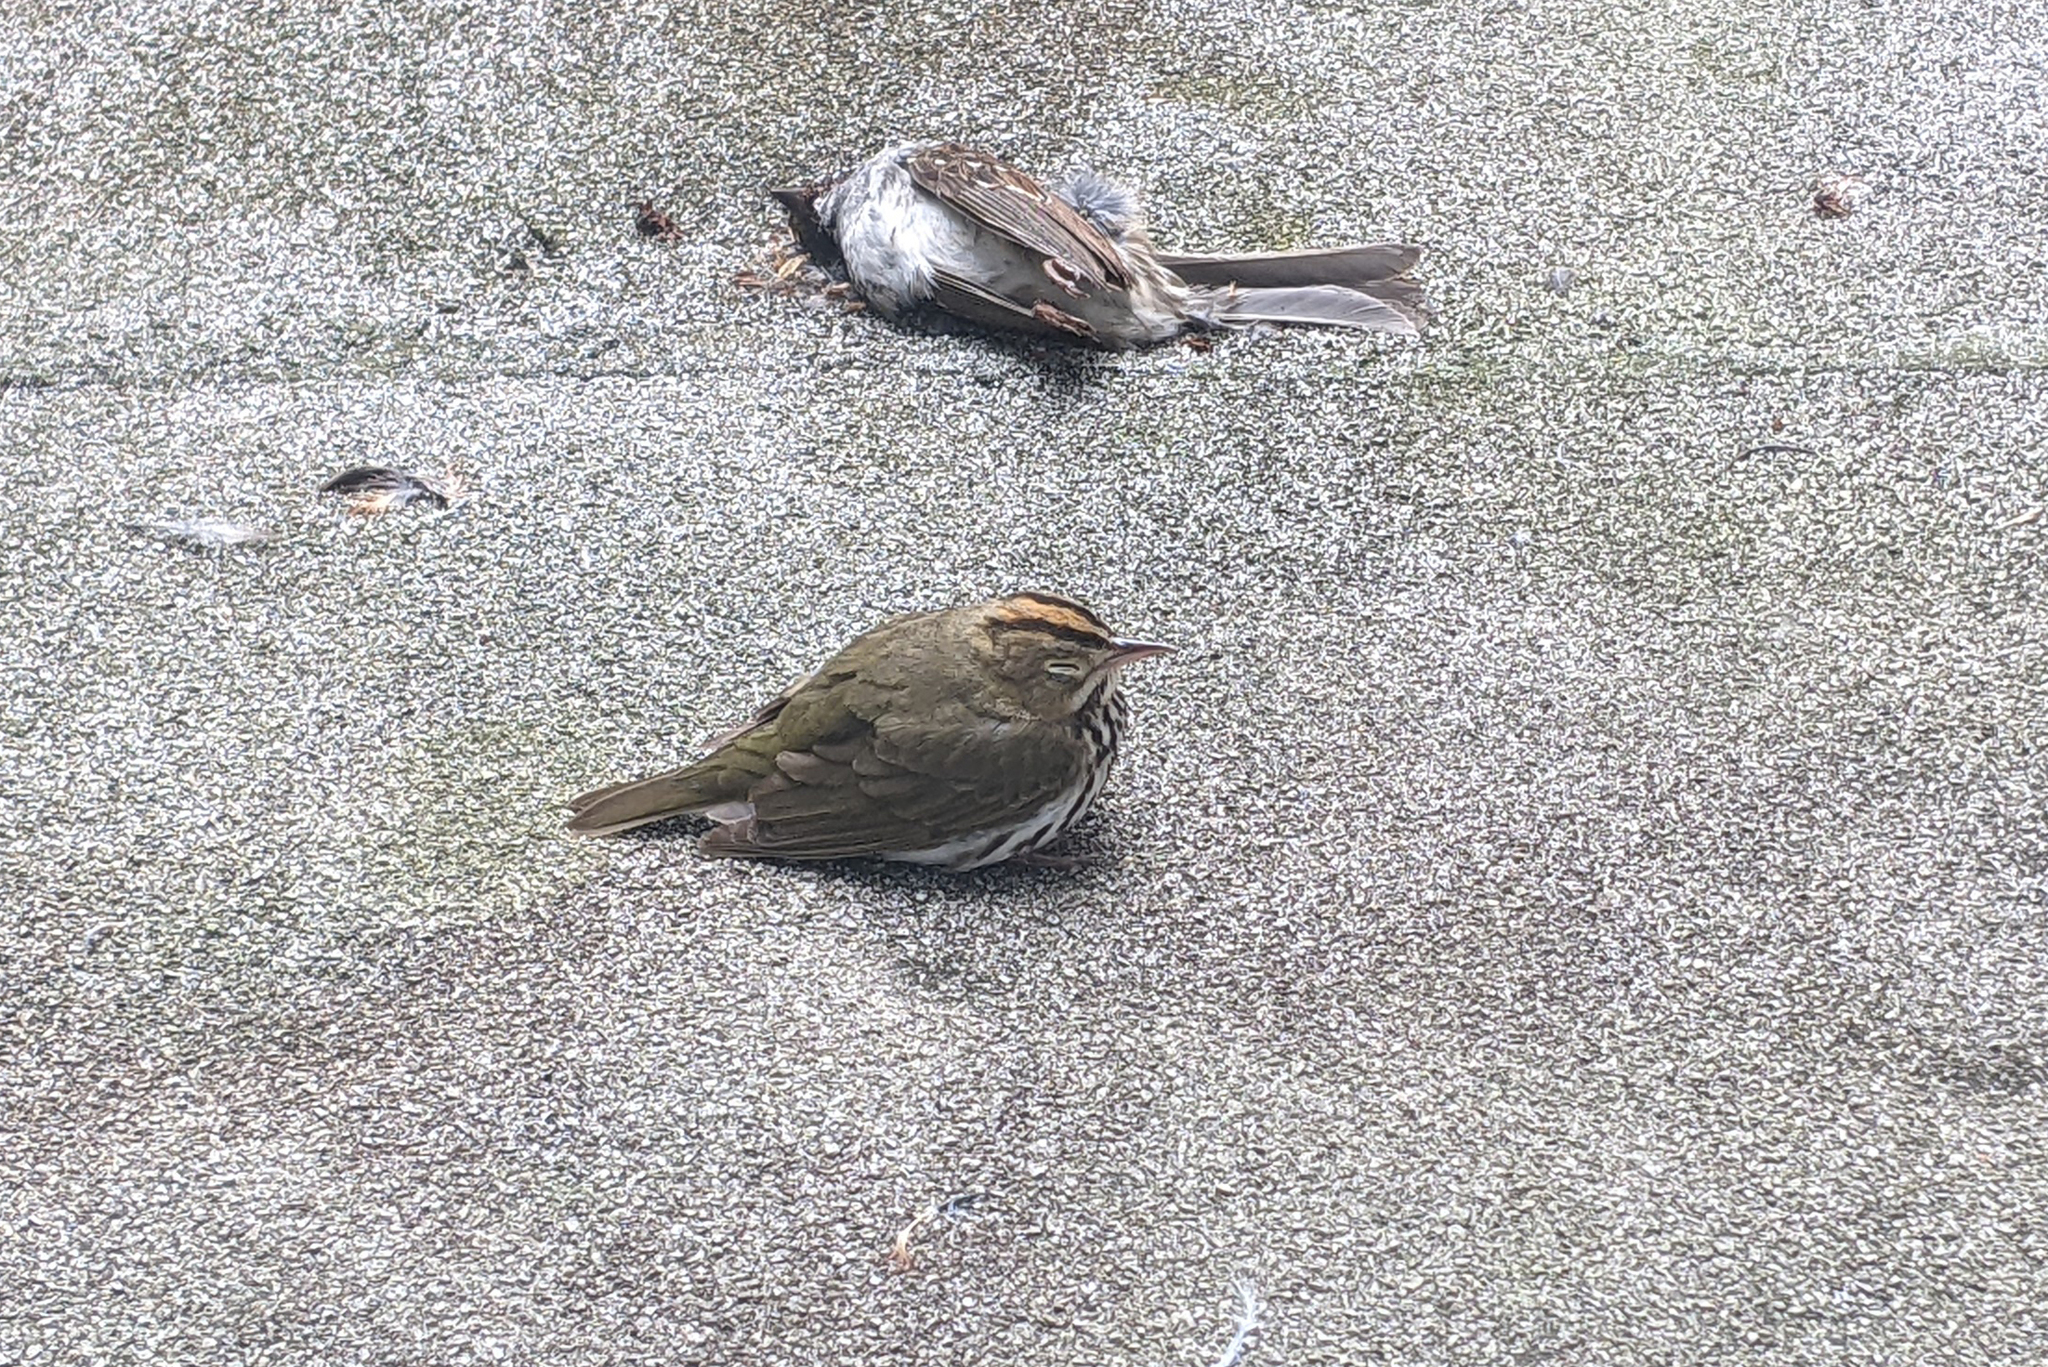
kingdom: Animalia
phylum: Chordata
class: Aves
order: Passeriformes
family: Parulidae
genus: Seiurus
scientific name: Seiurus aurocapilla
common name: Ovenbird
